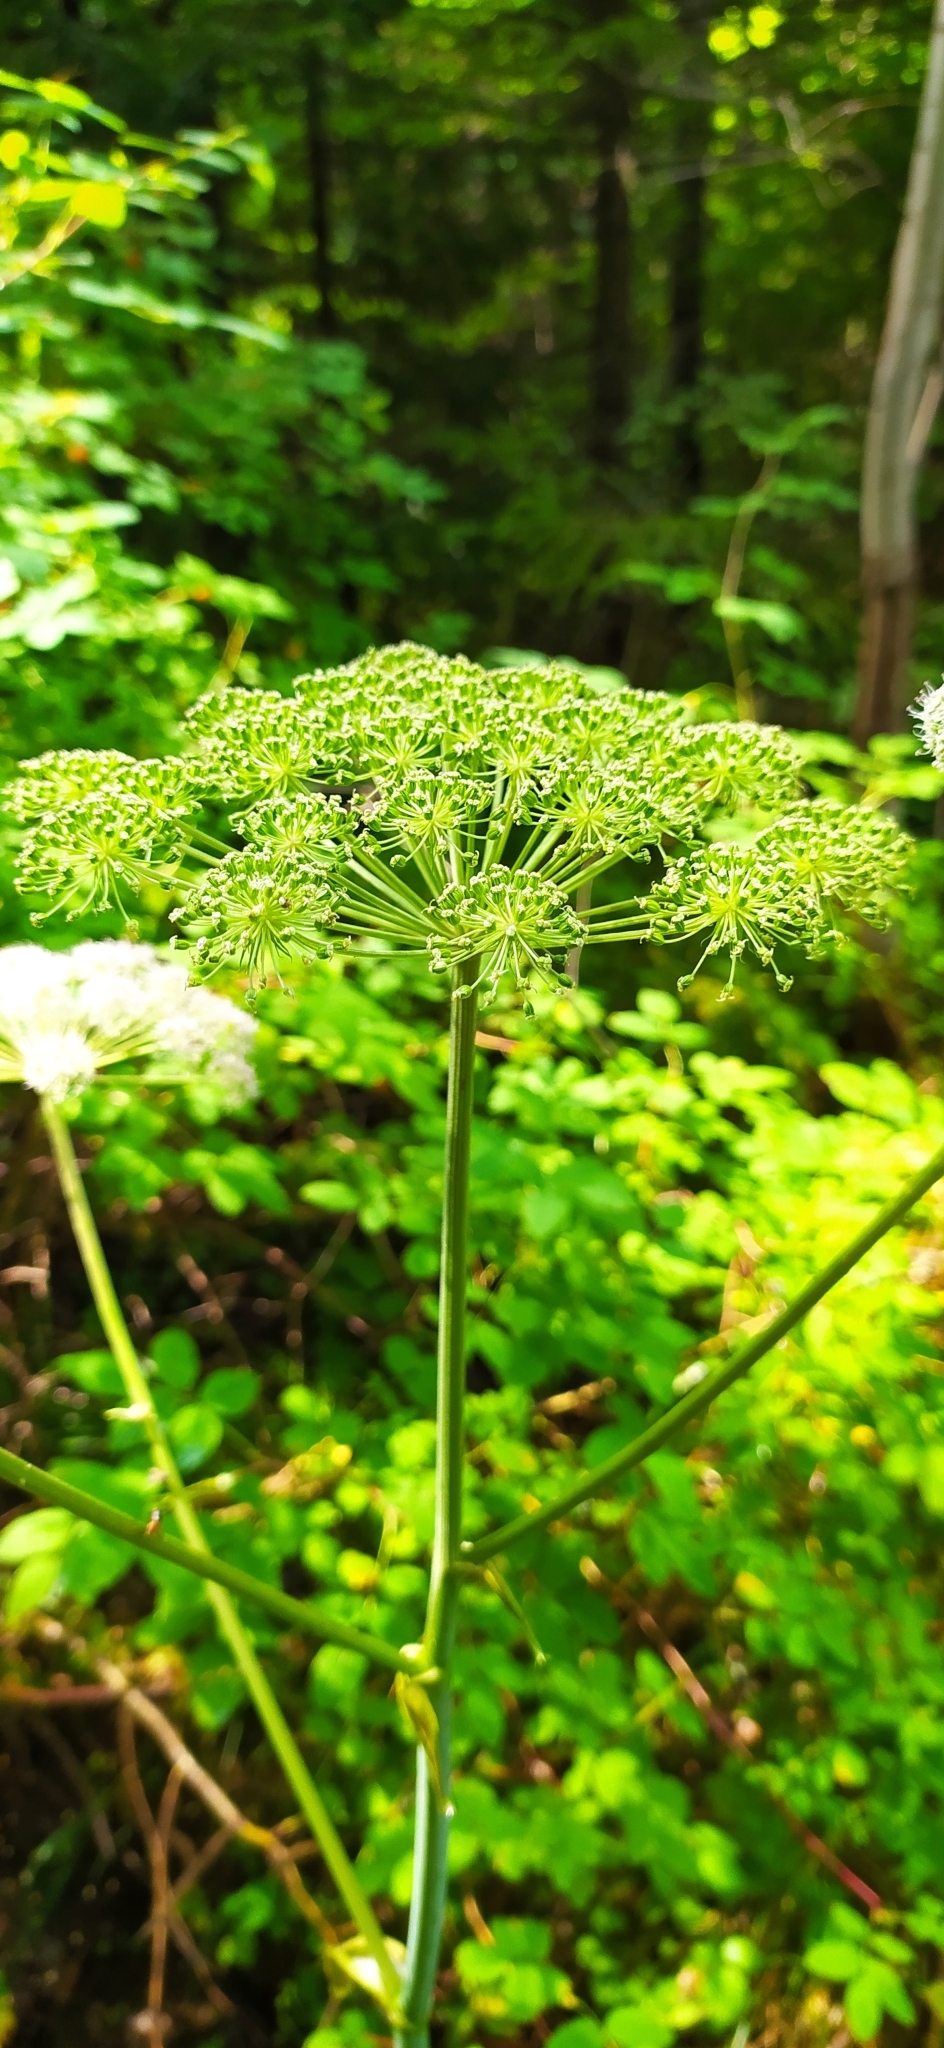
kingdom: Plantae
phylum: Tracheophyta
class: Magnoliopsida
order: Apiales
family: Apiaceae
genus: Angelica
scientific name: Angelica sylvestris
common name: Wild angelica
